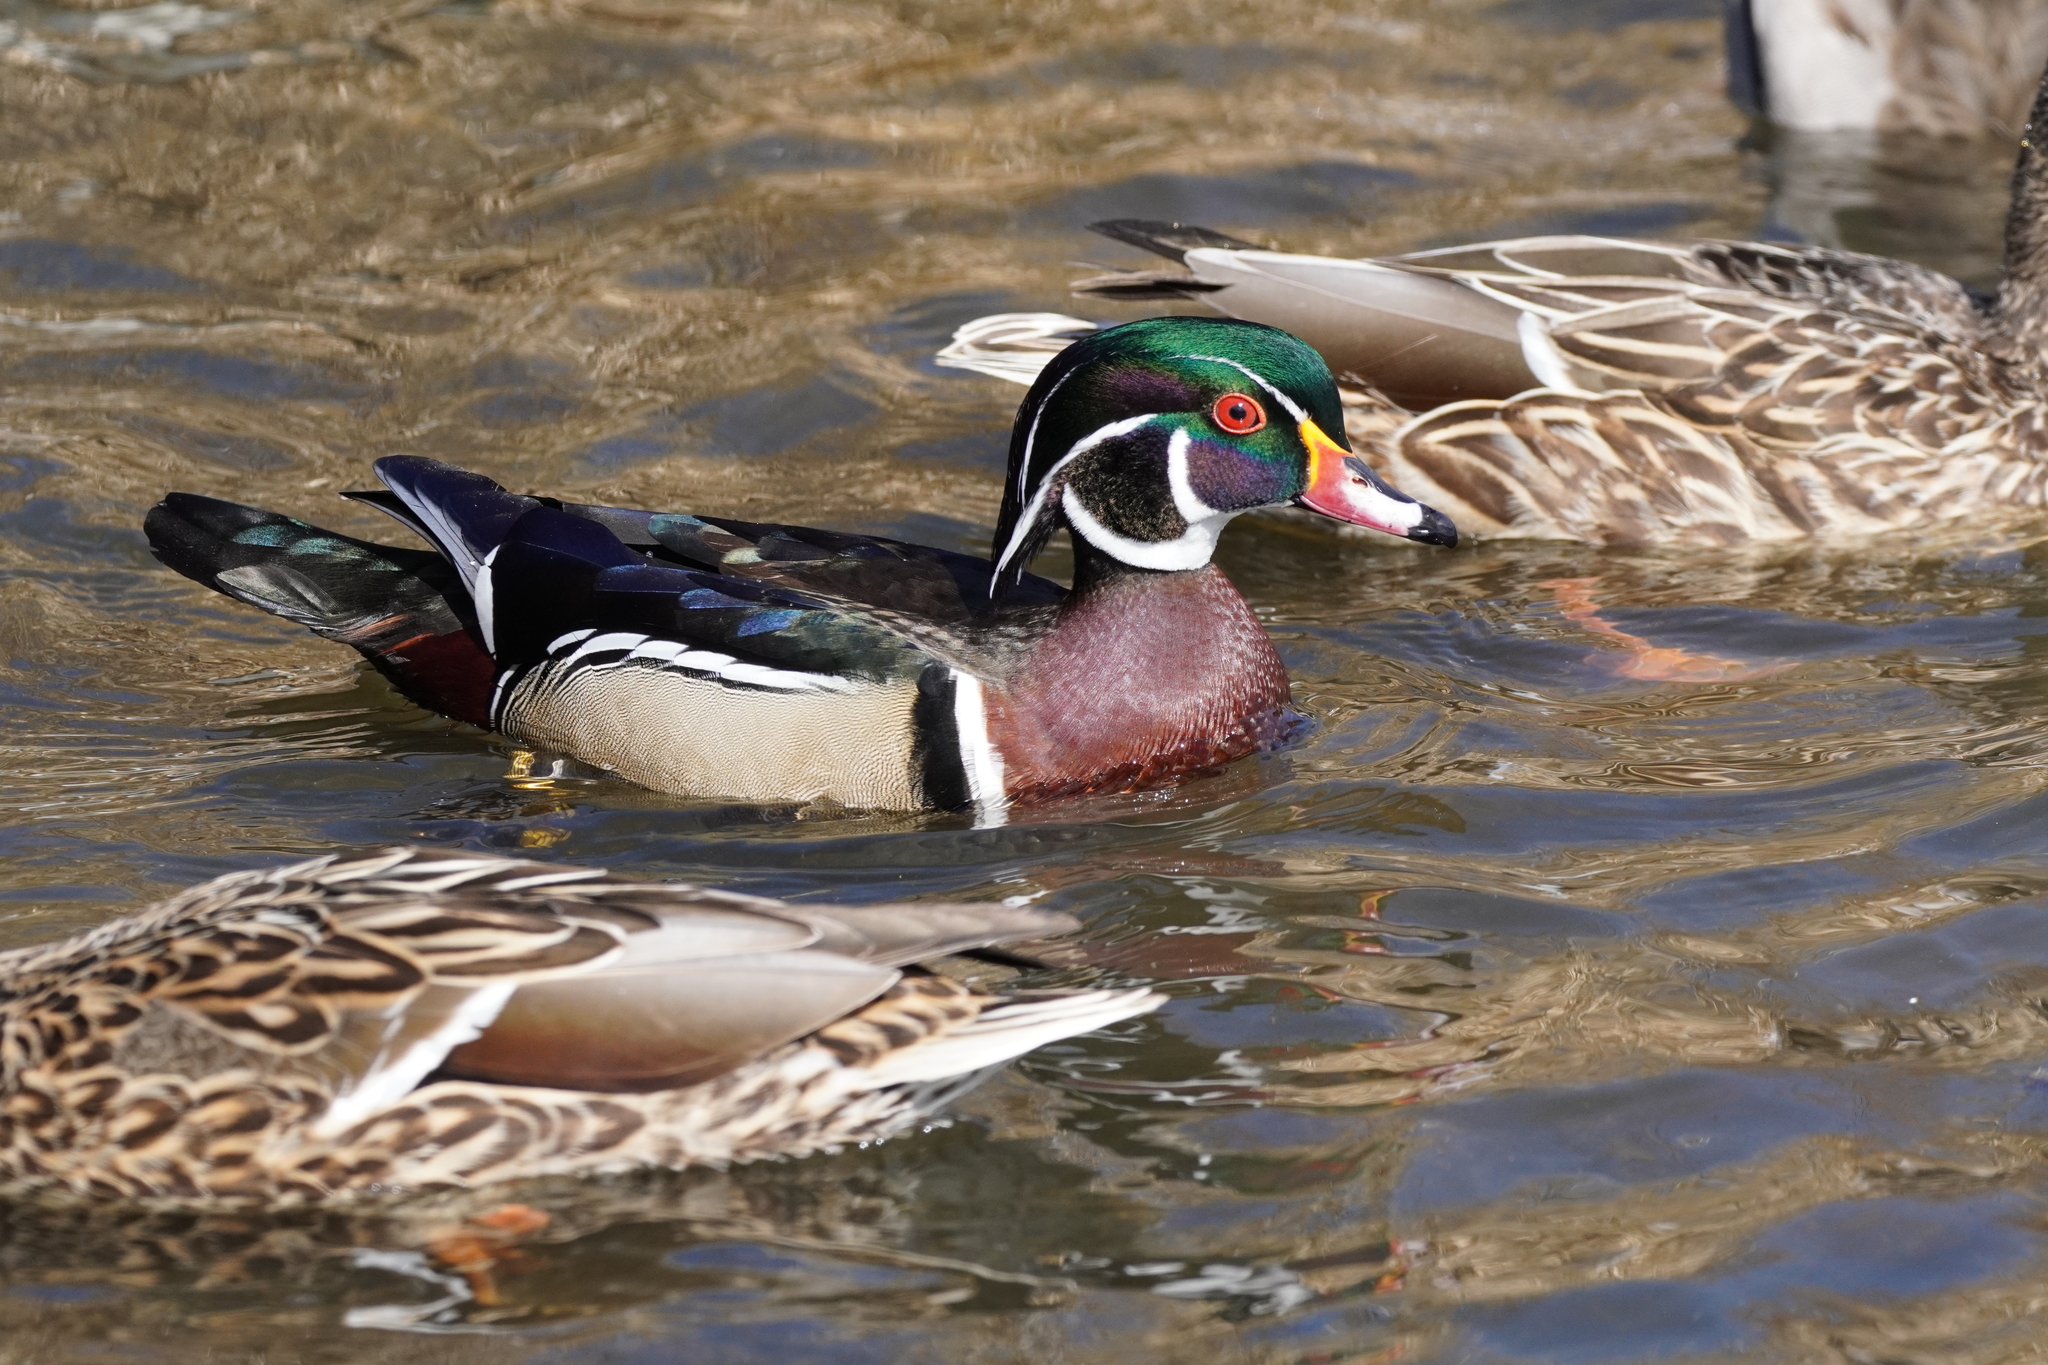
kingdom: Animalia
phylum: Chordata
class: Aves
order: Anseriformes
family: Anatidae
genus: Aix
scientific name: Aix sponsa
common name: Wood duck
